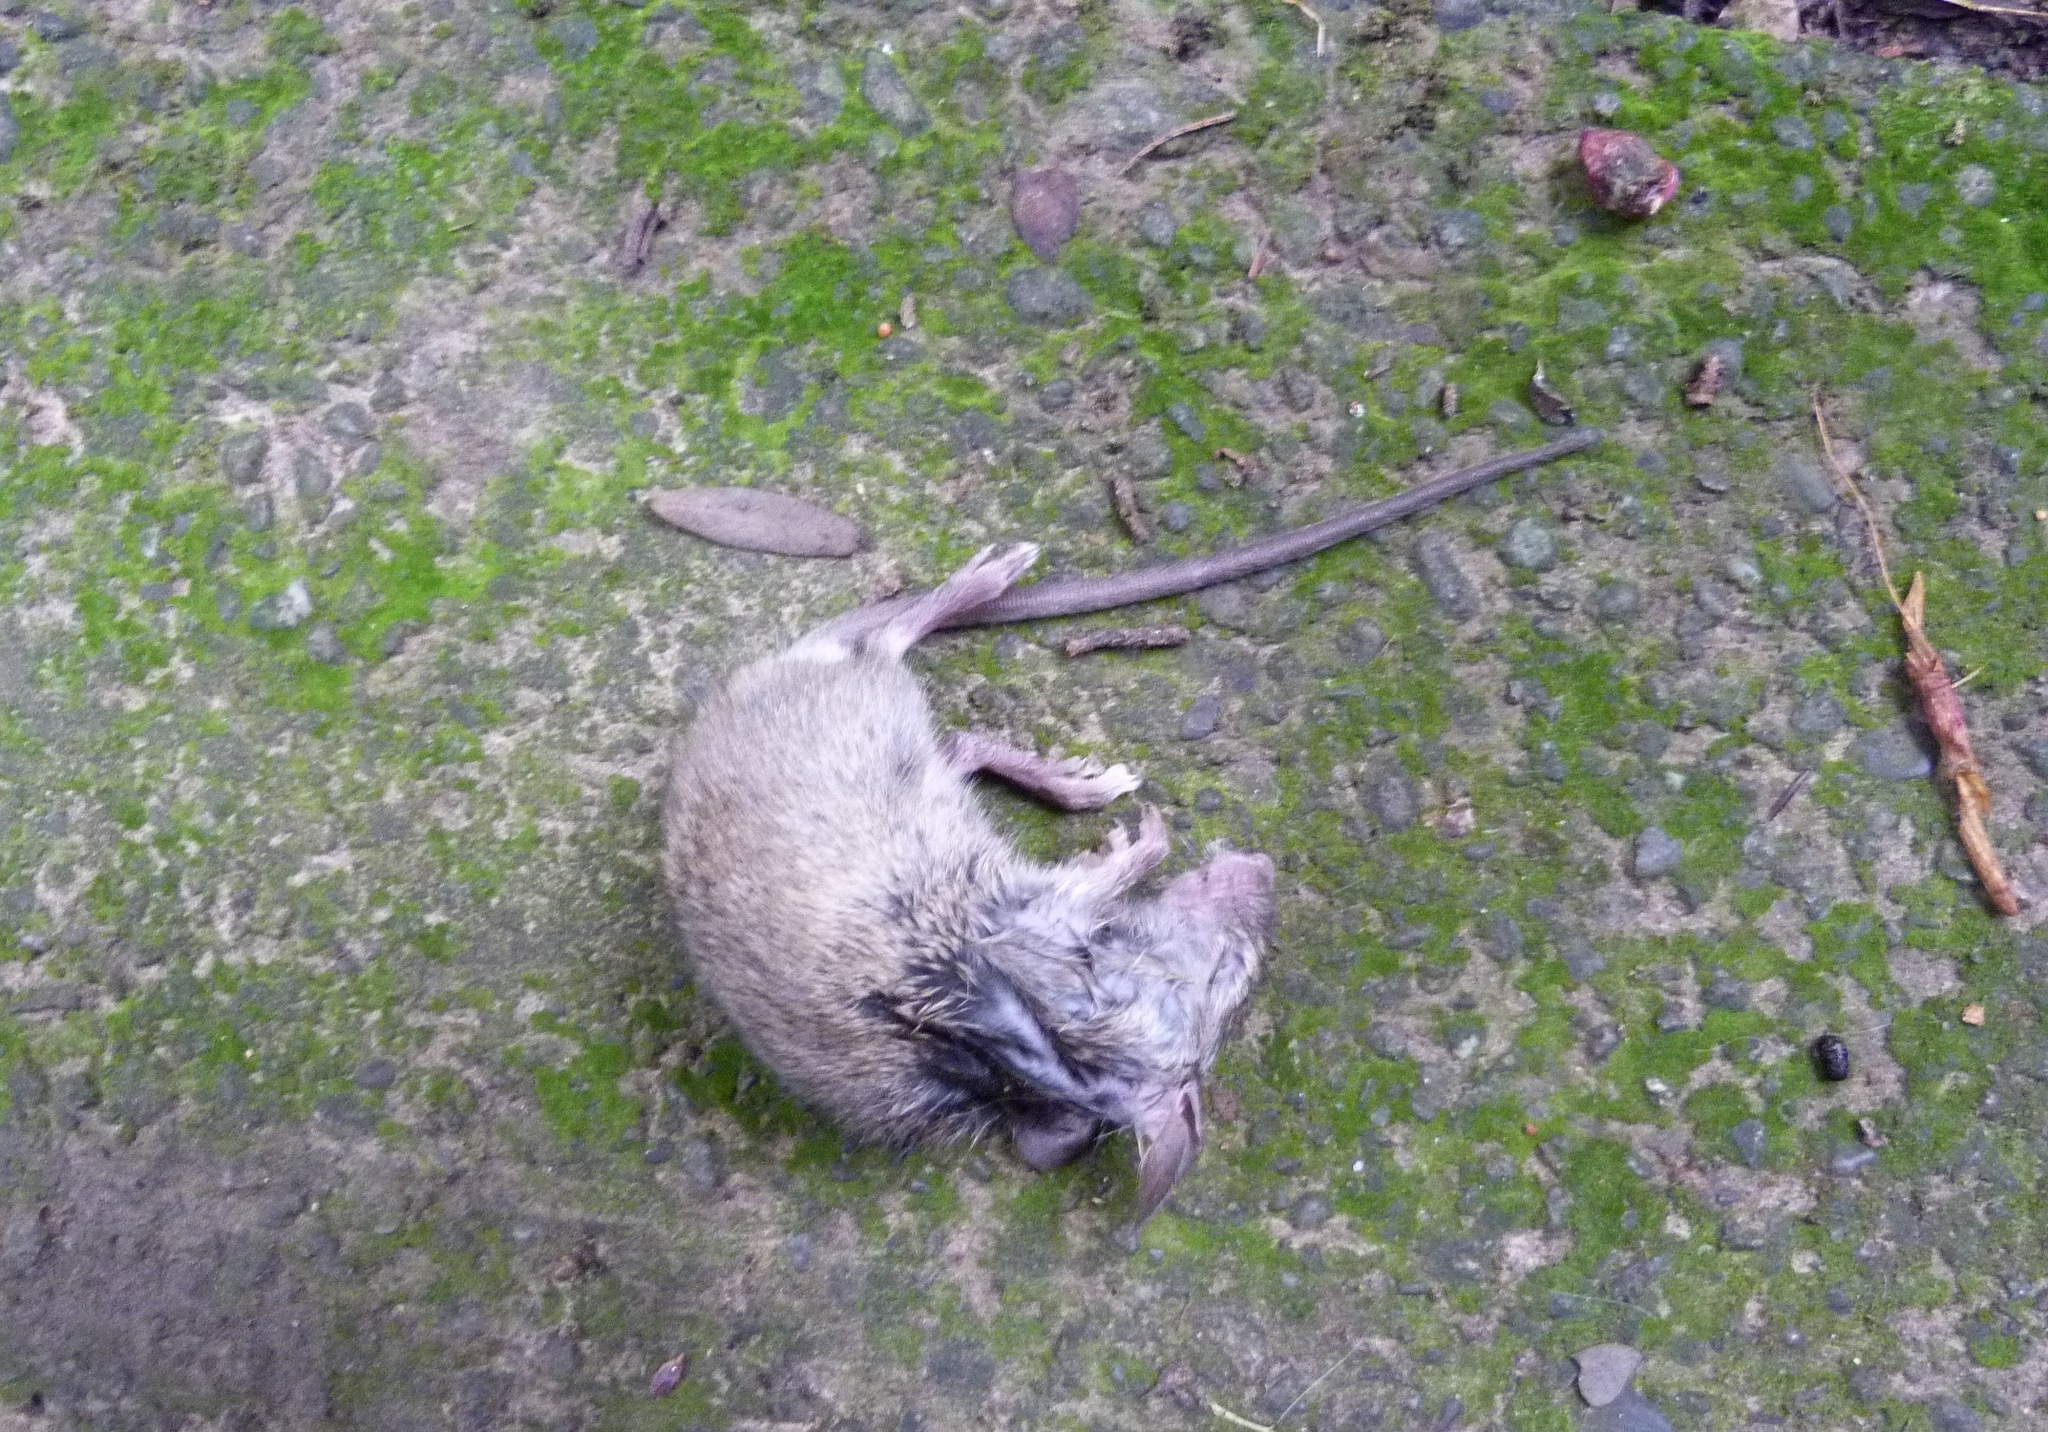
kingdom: Animalia
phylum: Chordata
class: Mammalia
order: Rodentia
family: Muridae
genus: Mus
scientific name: Mus musculus
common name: House mouse
